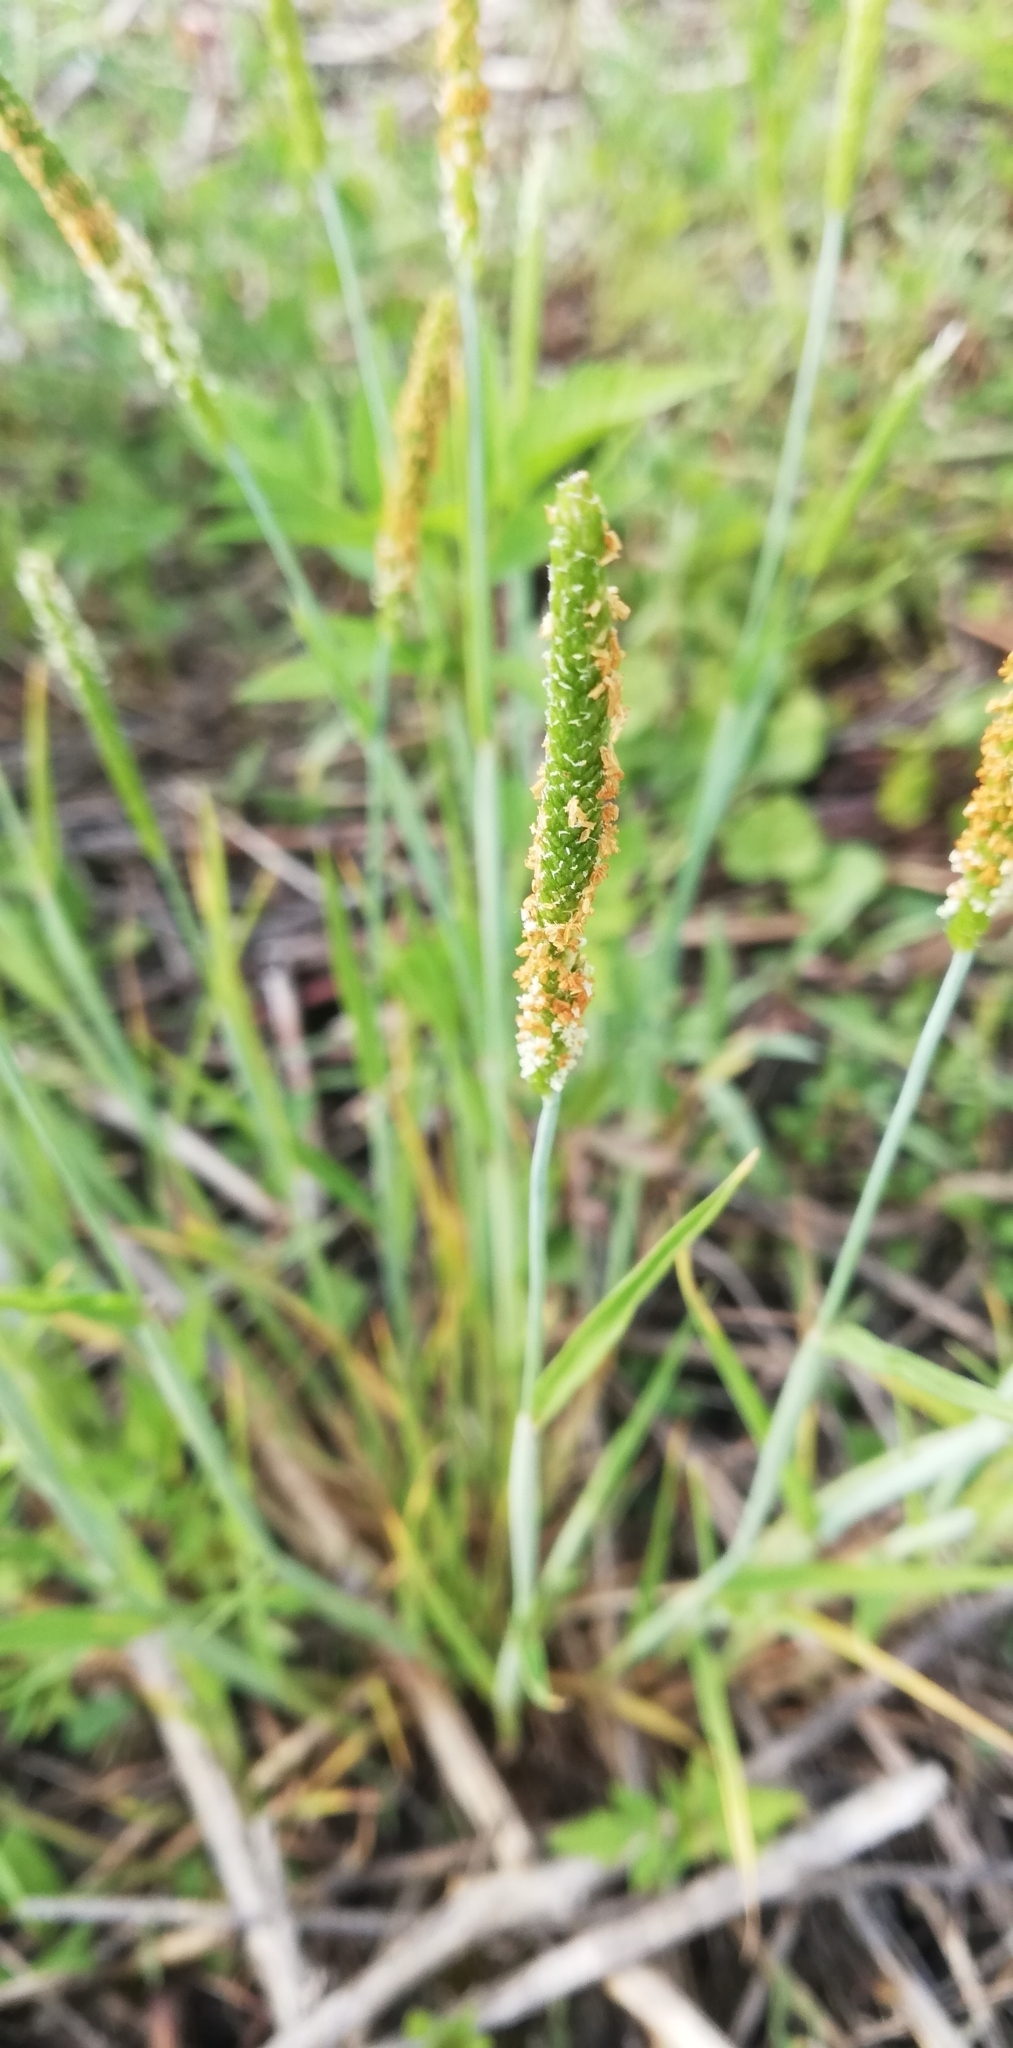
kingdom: Plantae
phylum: Tracheophyta
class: Liliopsida
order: Poales
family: Poaceae
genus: Alopecurus
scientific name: Alopecurus aequalis
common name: Orange foxtail
